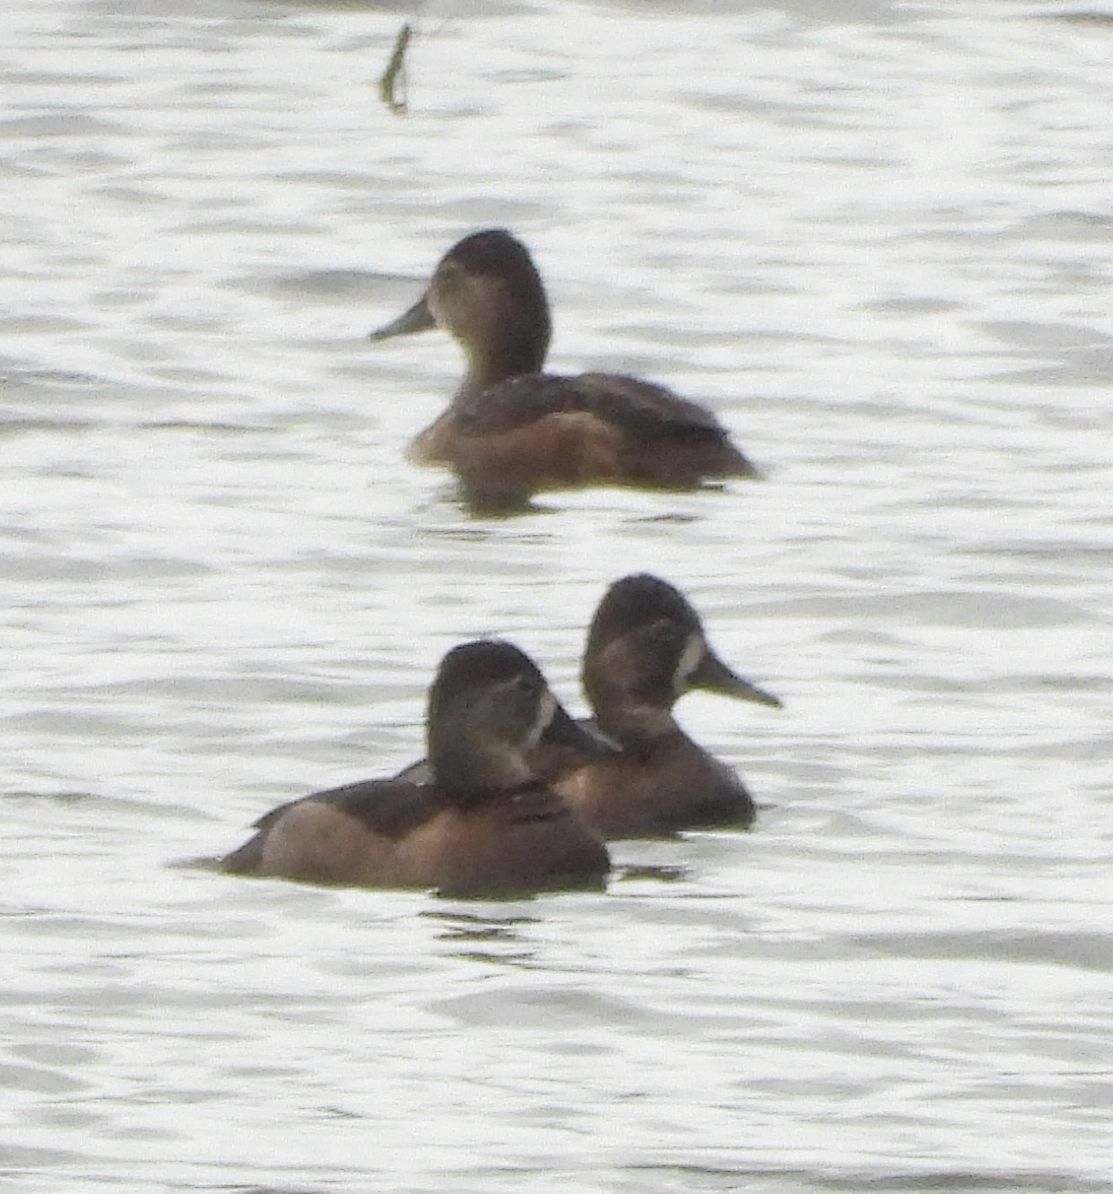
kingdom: Animalia
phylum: Chordata
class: Aves
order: Anseriformes
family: Anatidae
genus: Aythya
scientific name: Aythya collaris
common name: Ring-necked duck
